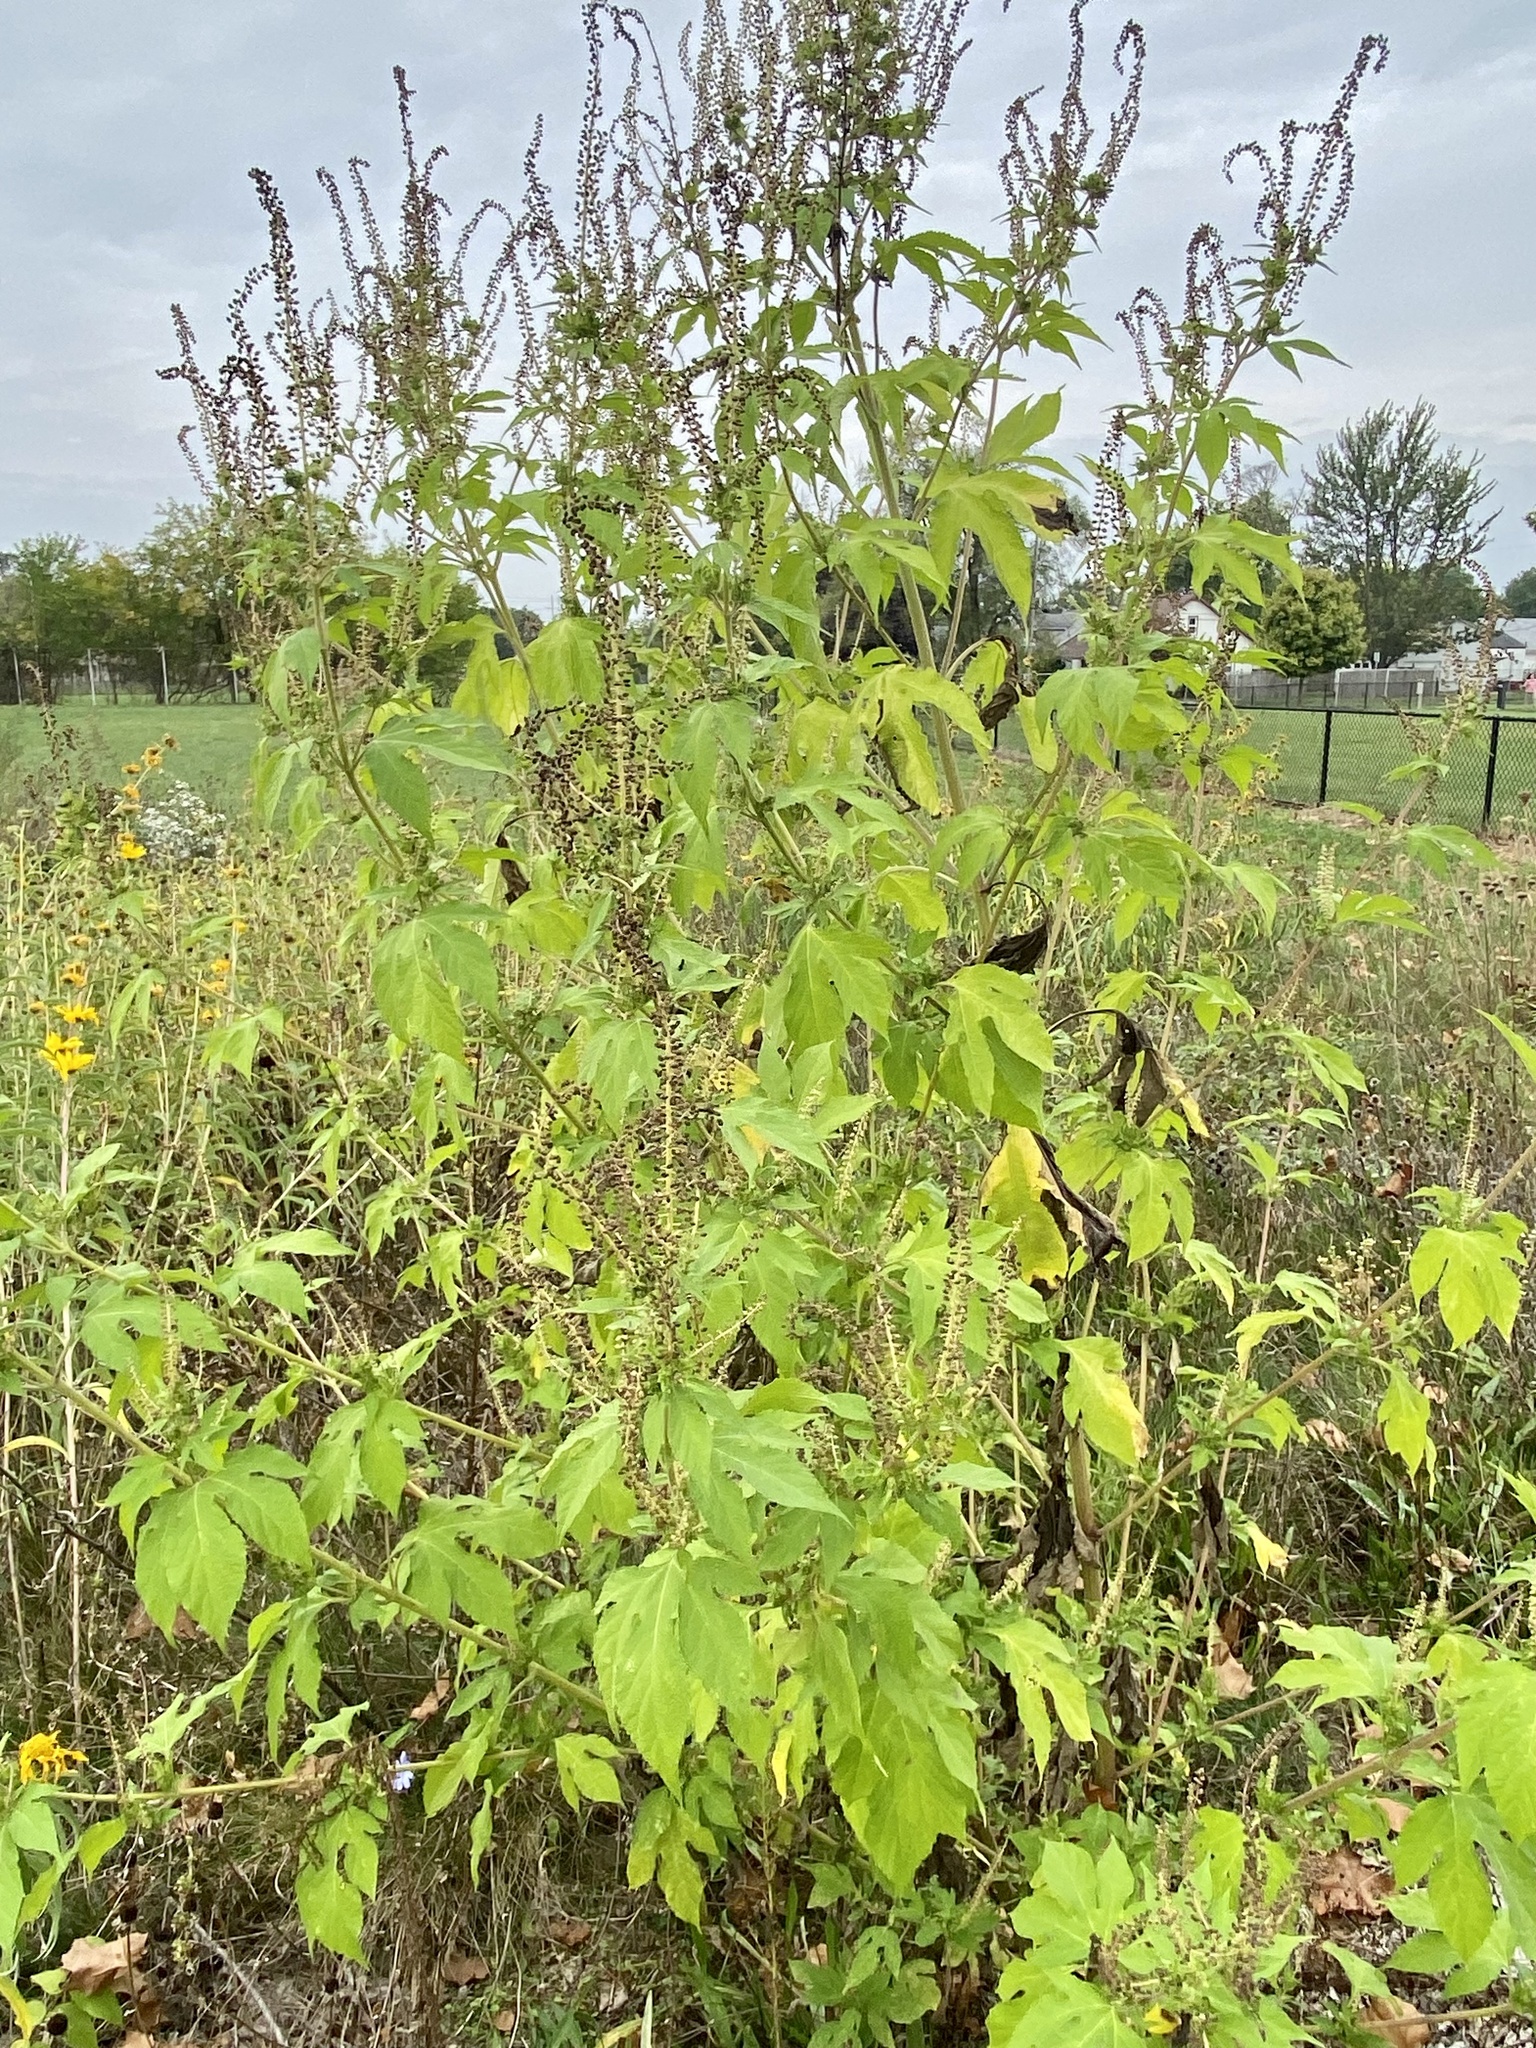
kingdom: Plantae
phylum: Tracheophyta
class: Magnoliopsida
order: Asterales
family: Asteraceae
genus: Ambrosia
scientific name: Ambrosia trifida
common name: Giant ragweed
